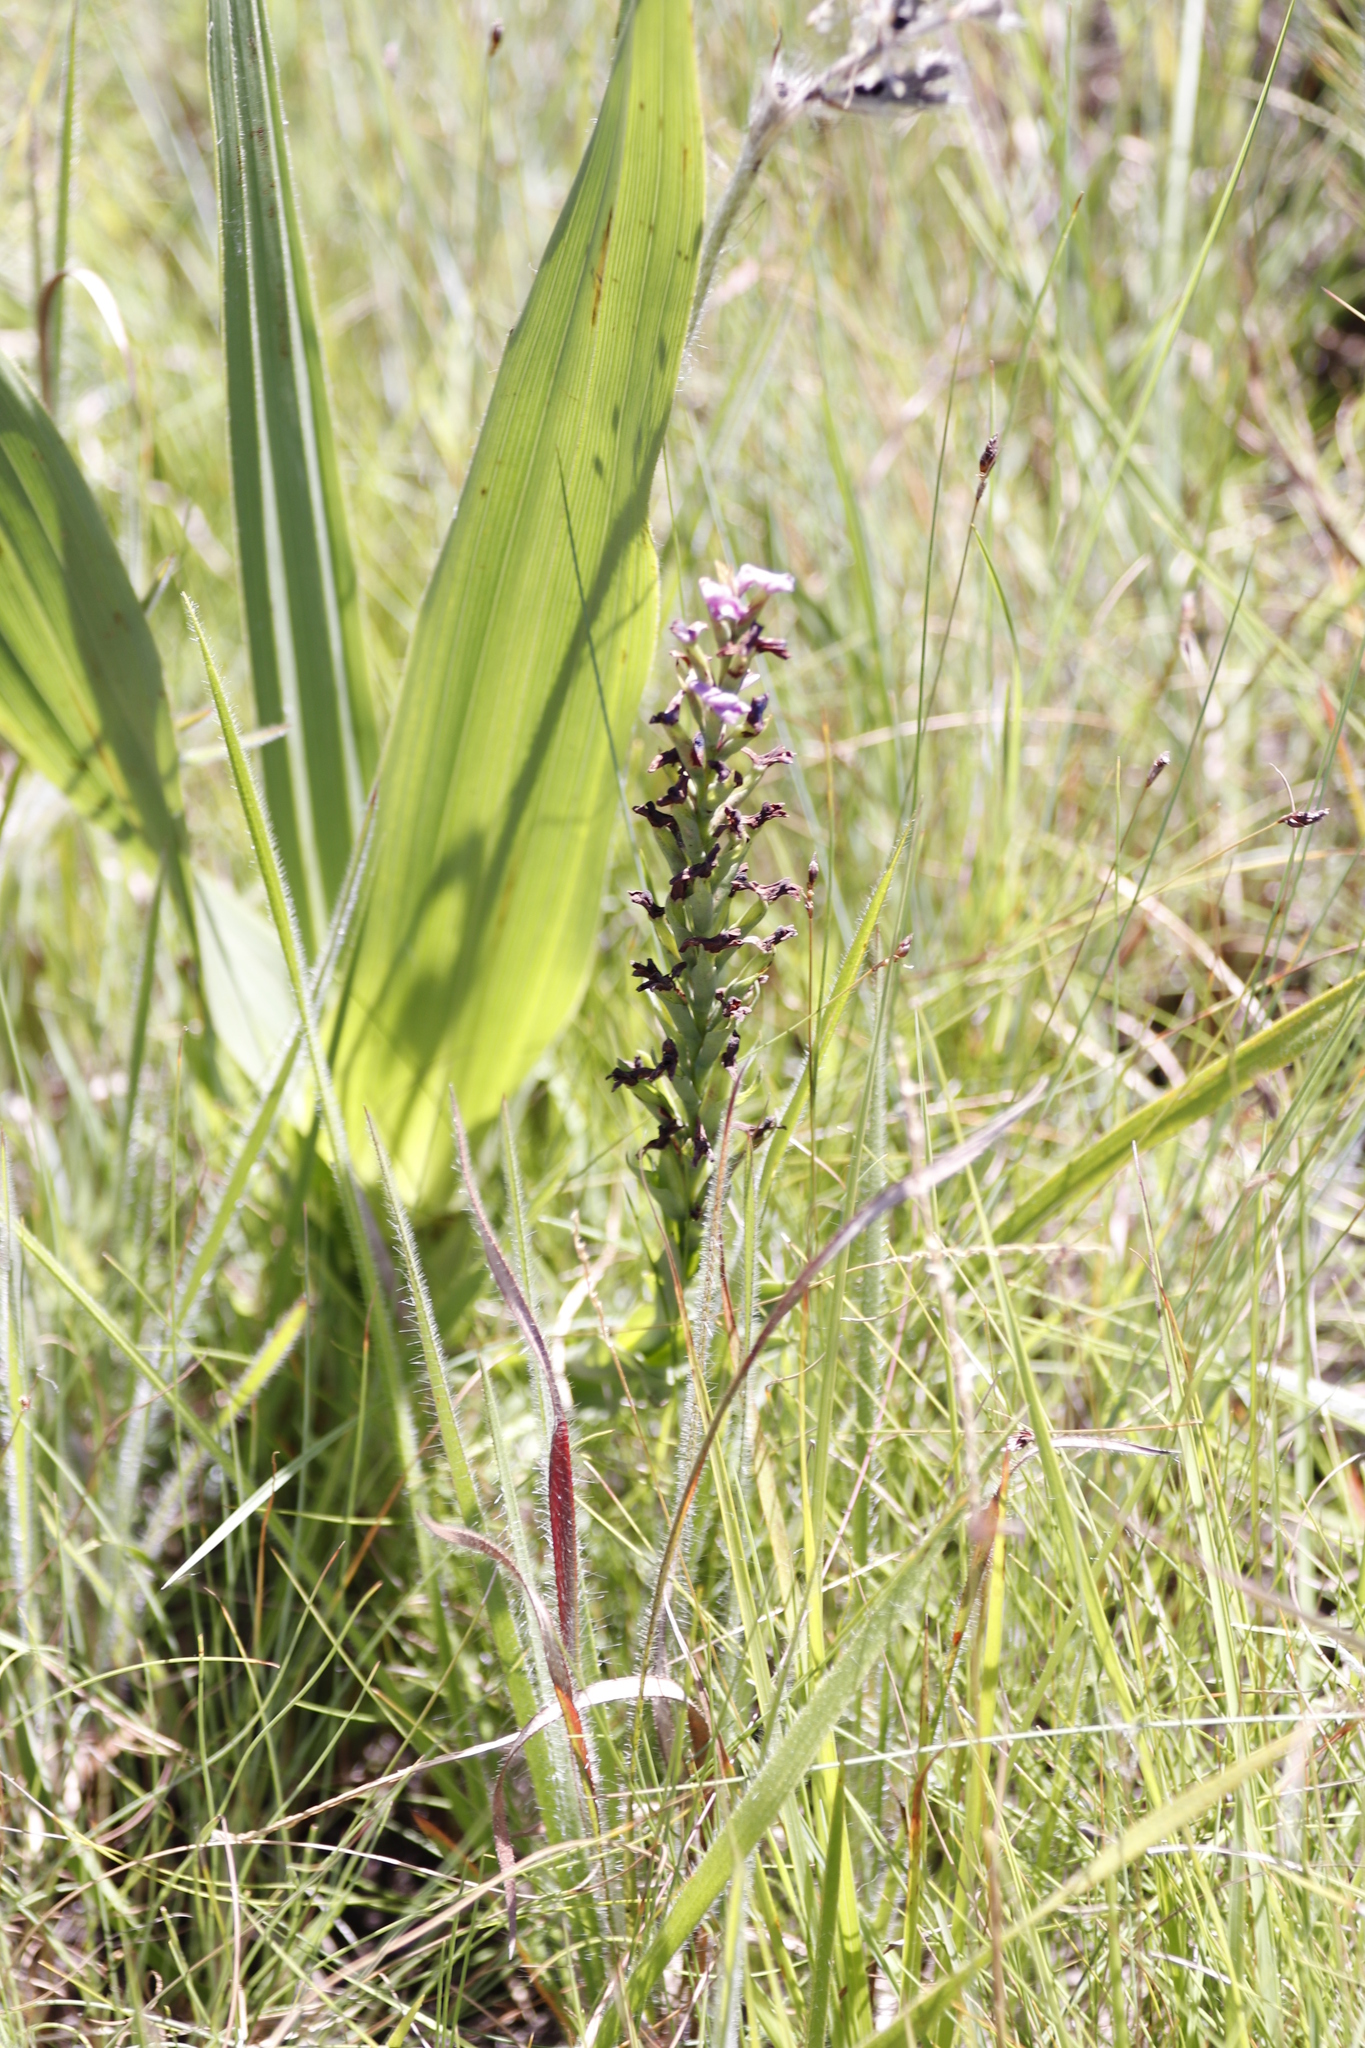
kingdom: Plantae
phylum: Tracheophyta
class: Liliopsida
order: Asparagales
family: Orchidaceae
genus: Disa
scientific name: Disa stachyoides
